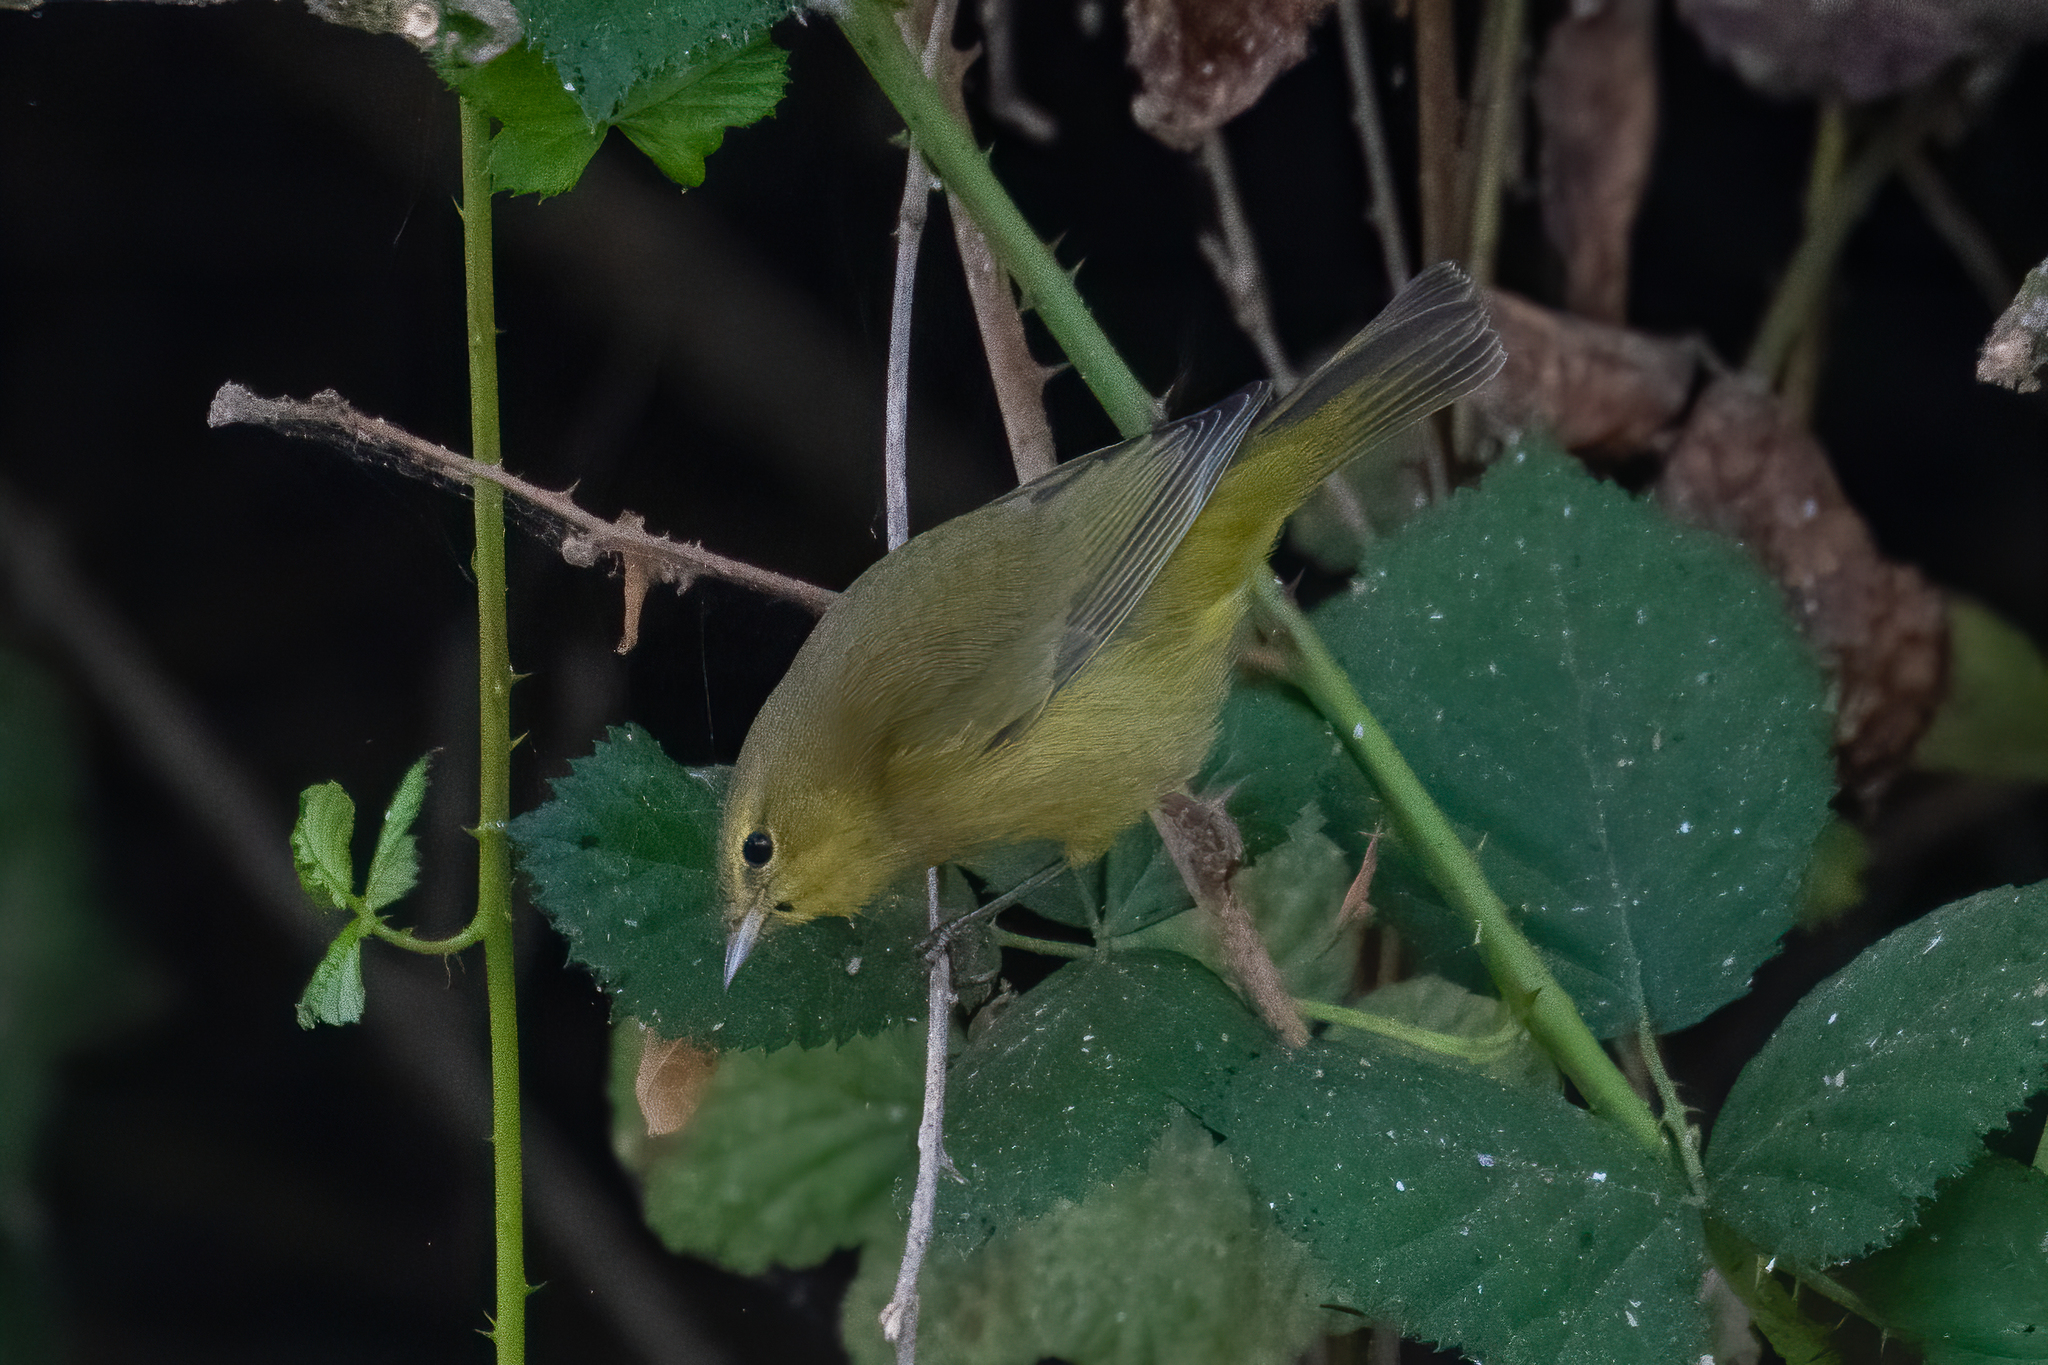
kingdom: Animalia
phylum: Chordata
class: Aves
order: Passeriformes
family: Parulidae
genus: Leiothlypis
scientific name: Leiothlypis celata
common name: Orange-crowned warbler
